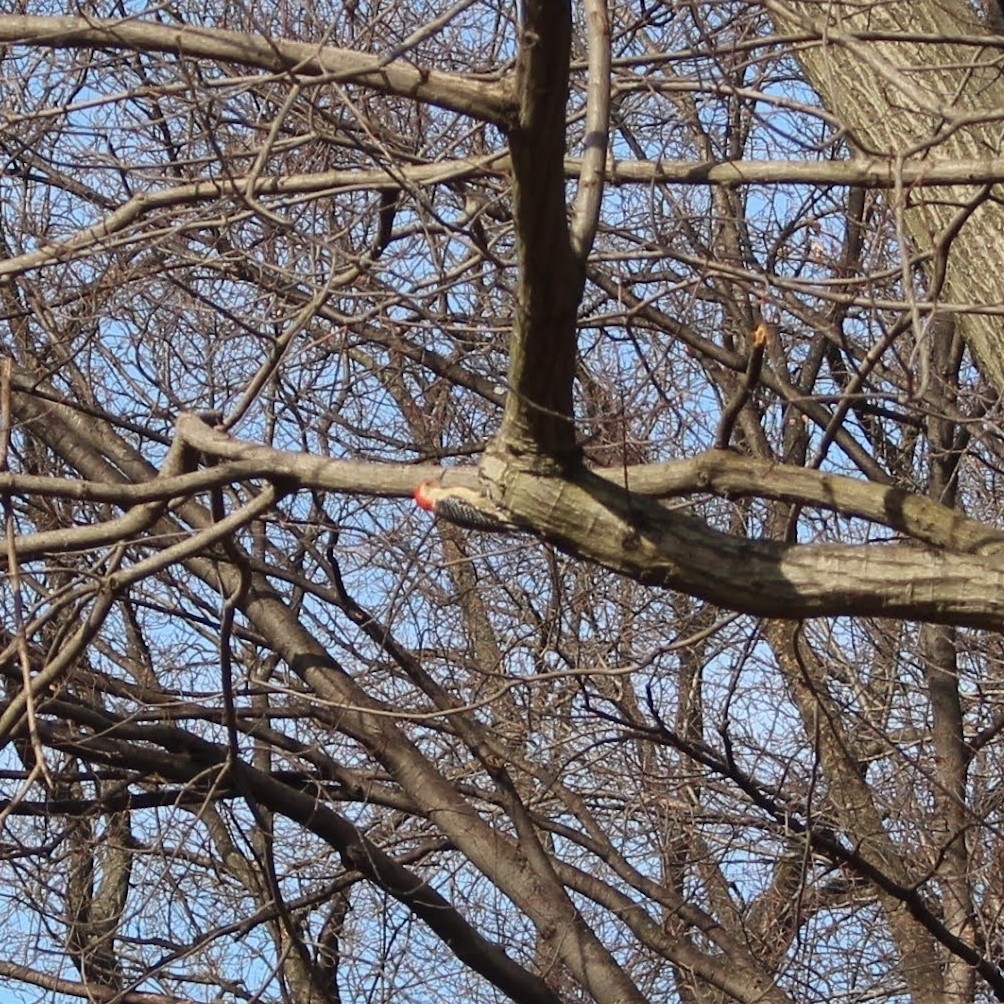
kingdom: Animalia
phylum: Chordata
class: Aves
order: Piciformes
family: Picidae
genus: Melanerpes
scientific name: Melanerpes carolinus
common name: Red-bellied woodpecker
